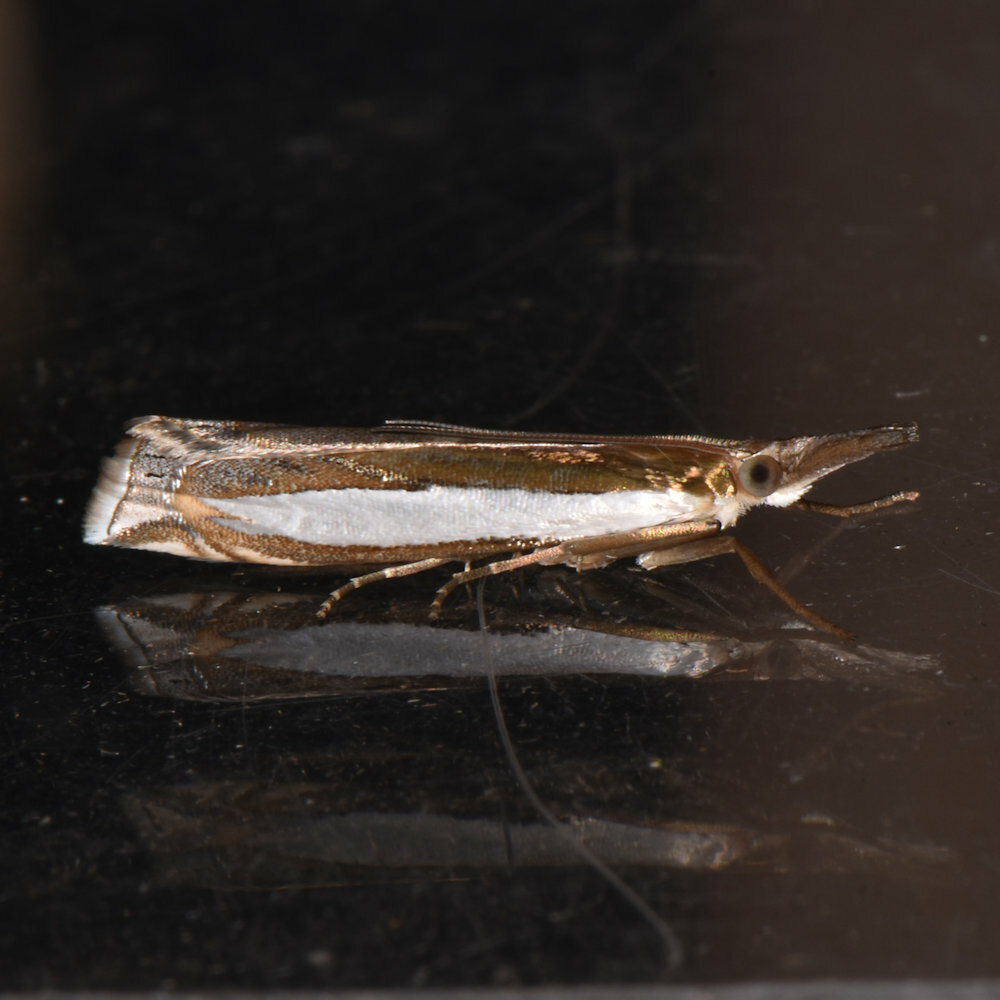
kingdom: Animalia
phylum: Arthropoda
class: Insecta
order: Lepidoptera
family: Crambidae
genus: Crambus
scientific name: Crambus leachellus
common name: Leach's grass-veneer
